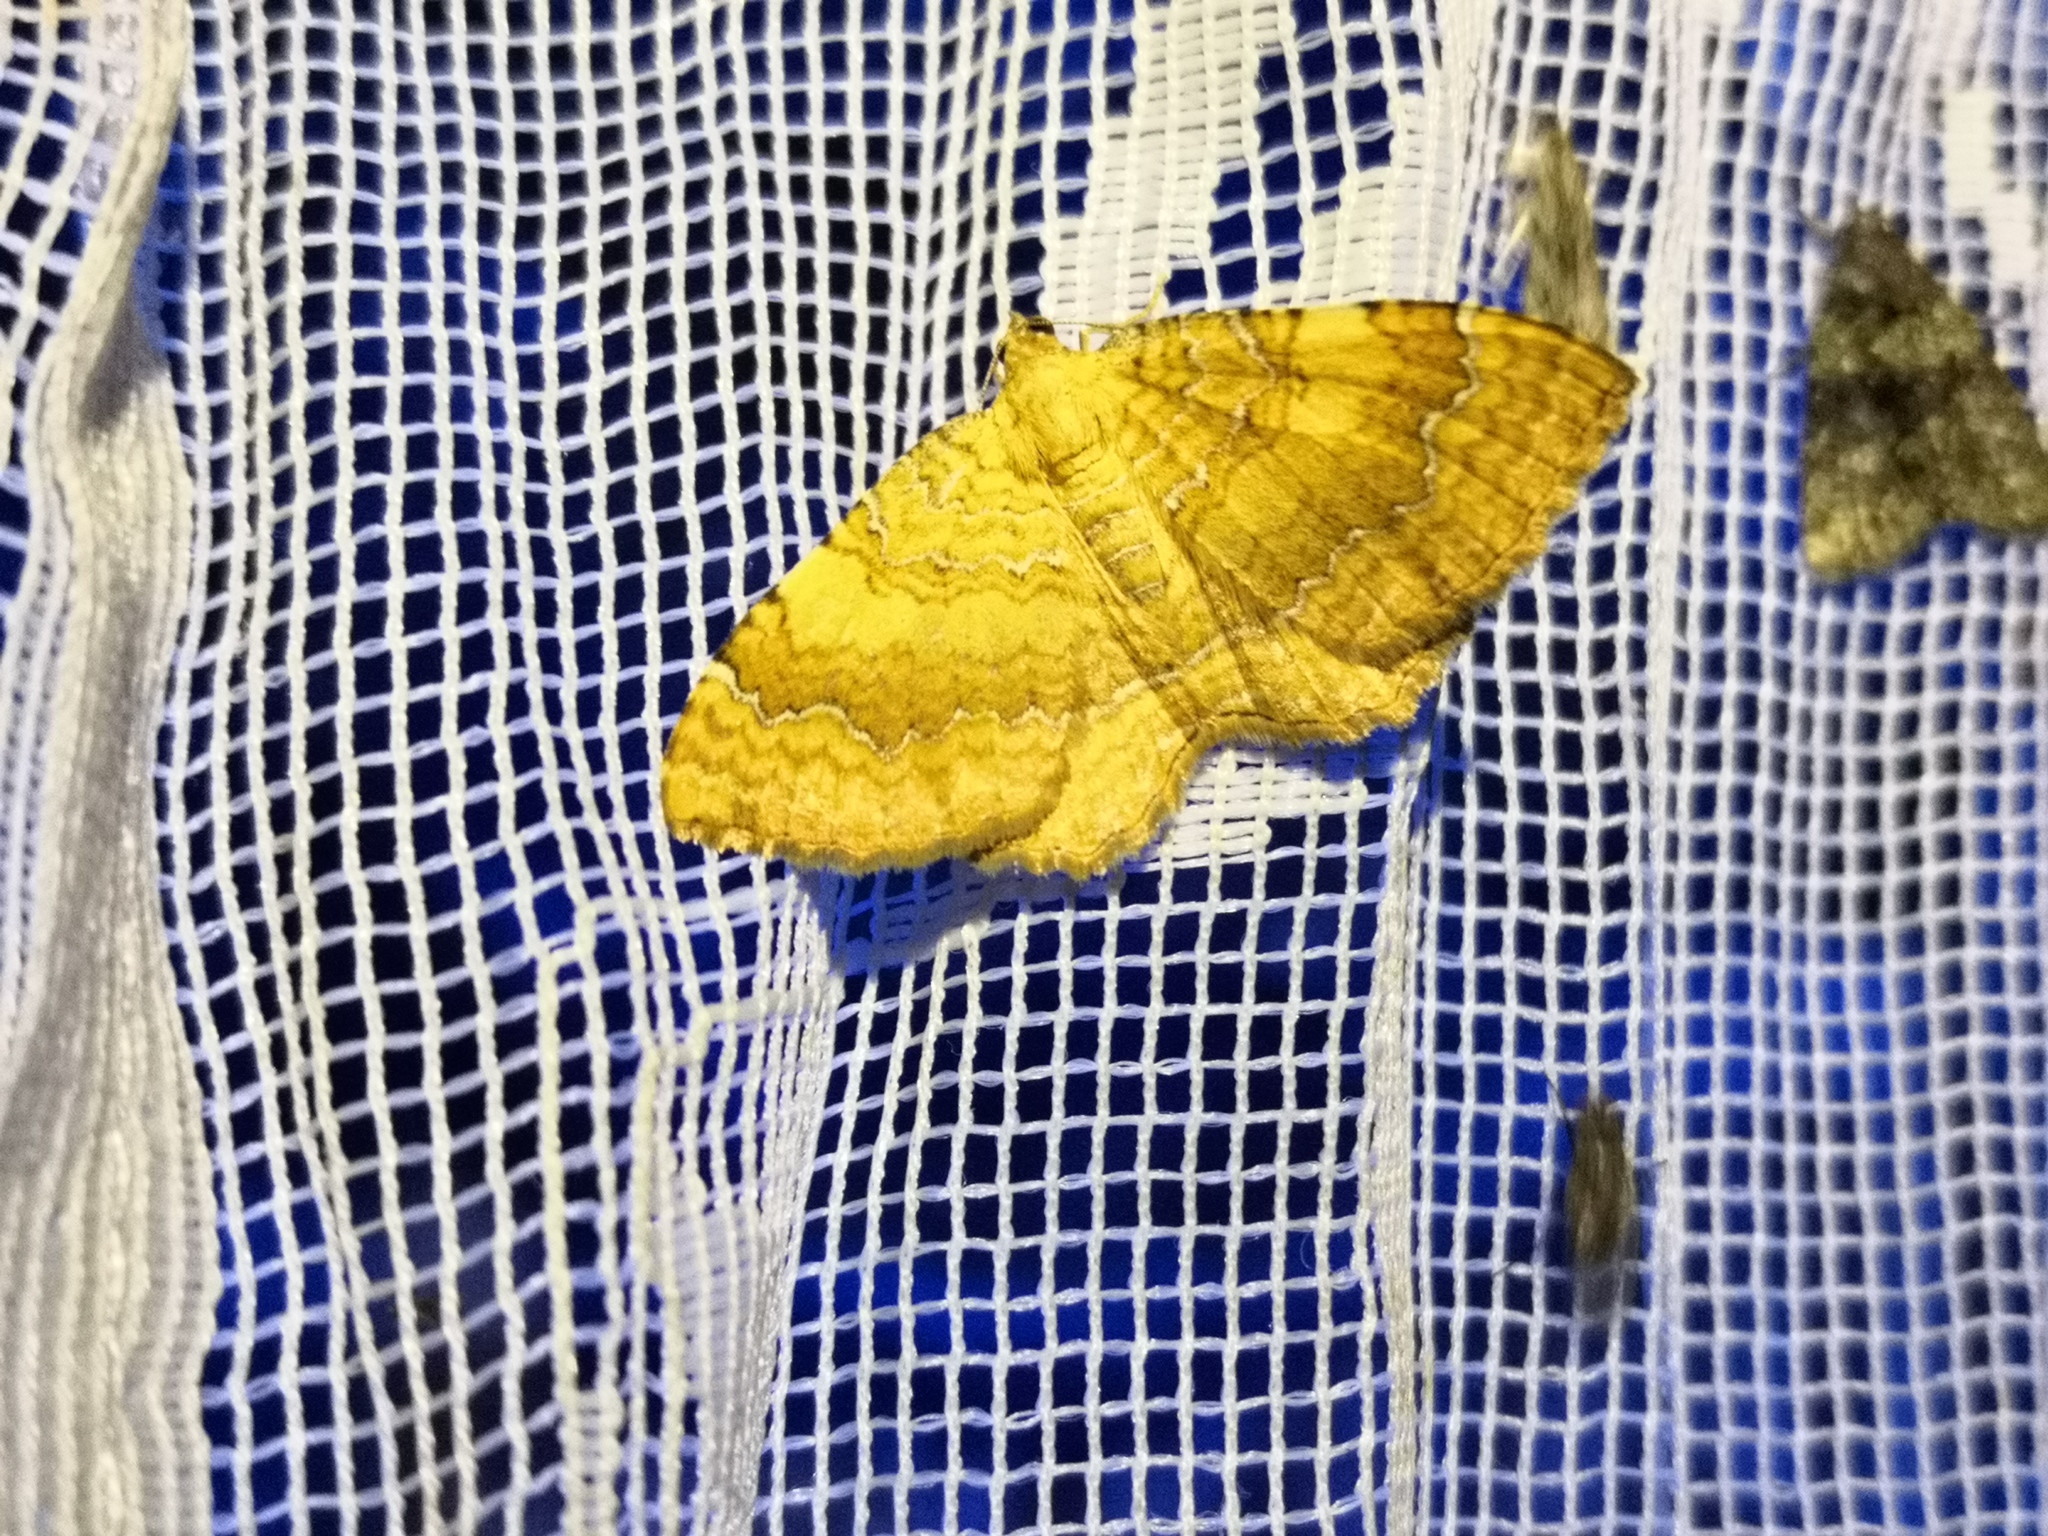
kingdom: Animalia
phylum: Arthropoda
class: Insecta
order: Lepidoptera
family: Geometridae
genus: Camptogramma
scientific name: Camptogramma bilineata
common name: Yellow shell
